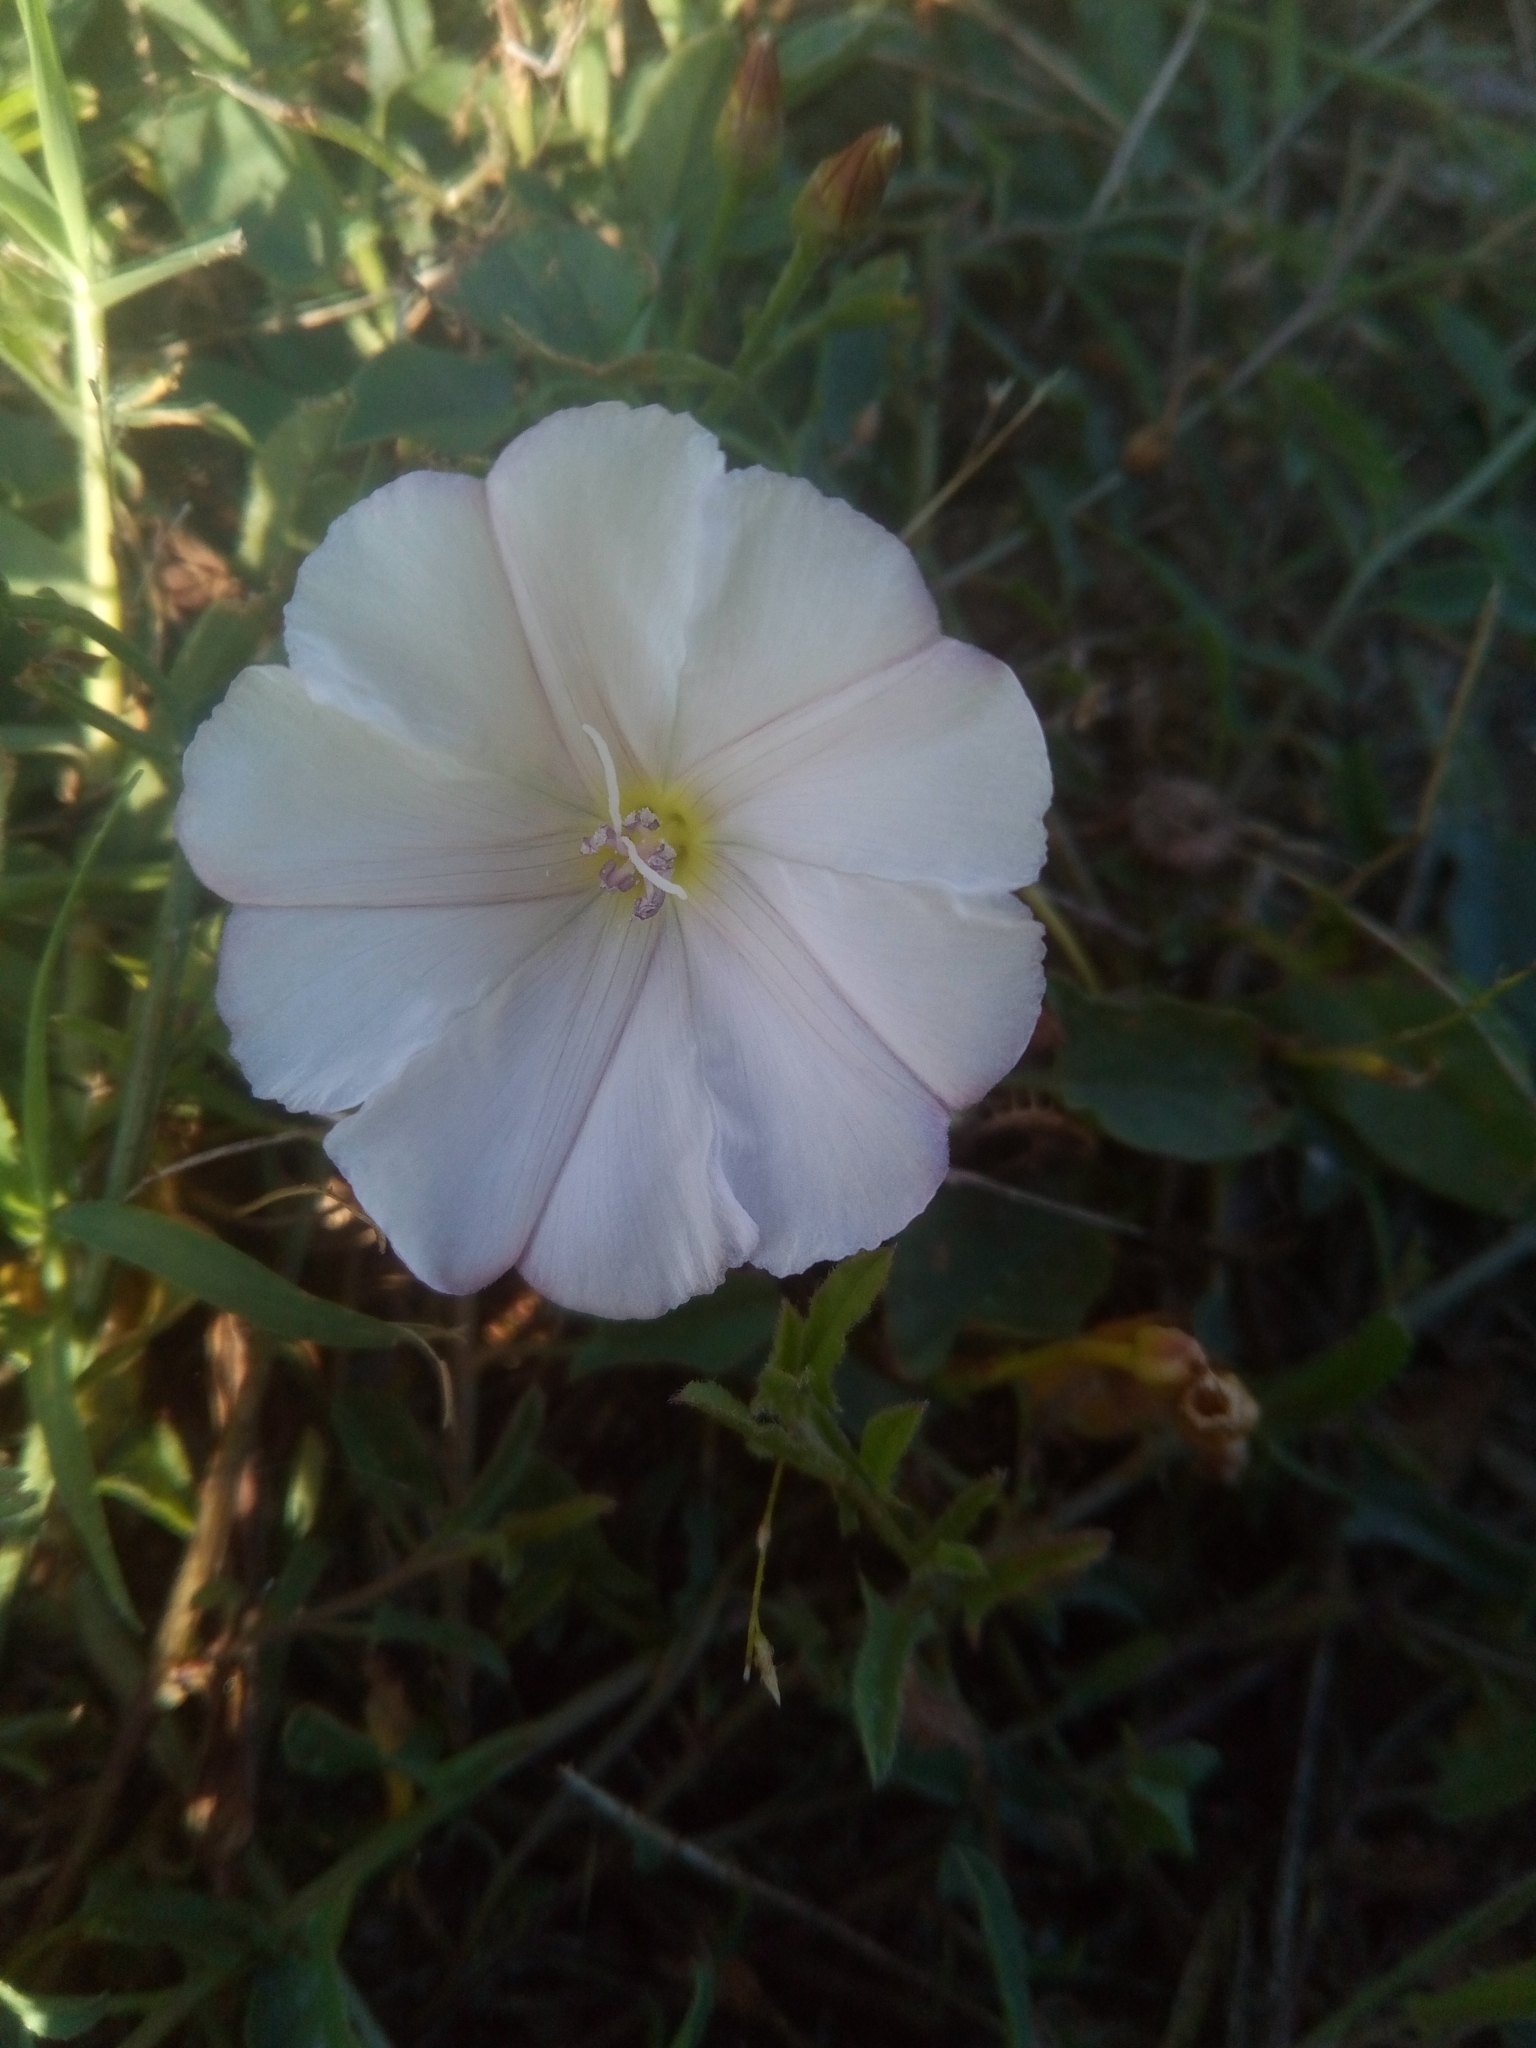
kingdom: Plantae
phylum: Tracheophyta
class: Magnoliopsida
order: Solanales
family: Convolvulaceae
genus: Convolvulus
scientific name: Convolvulus arvensis
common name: Field bindweed
